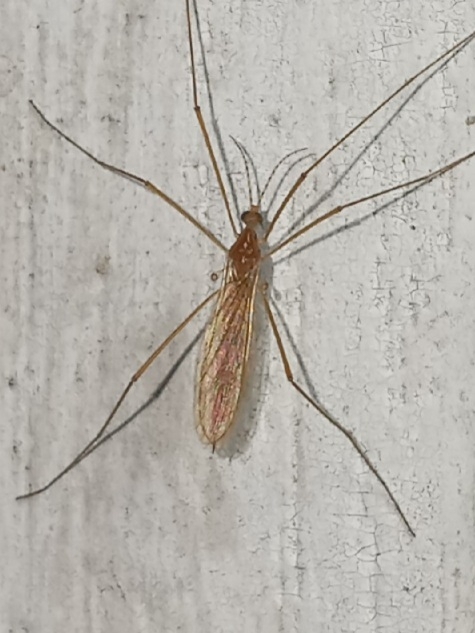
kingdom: Animalia
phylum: Arthropoda
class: Insecta
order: Diptera
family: Limoniidae
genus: Atarba
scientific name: Atarba picticornis
